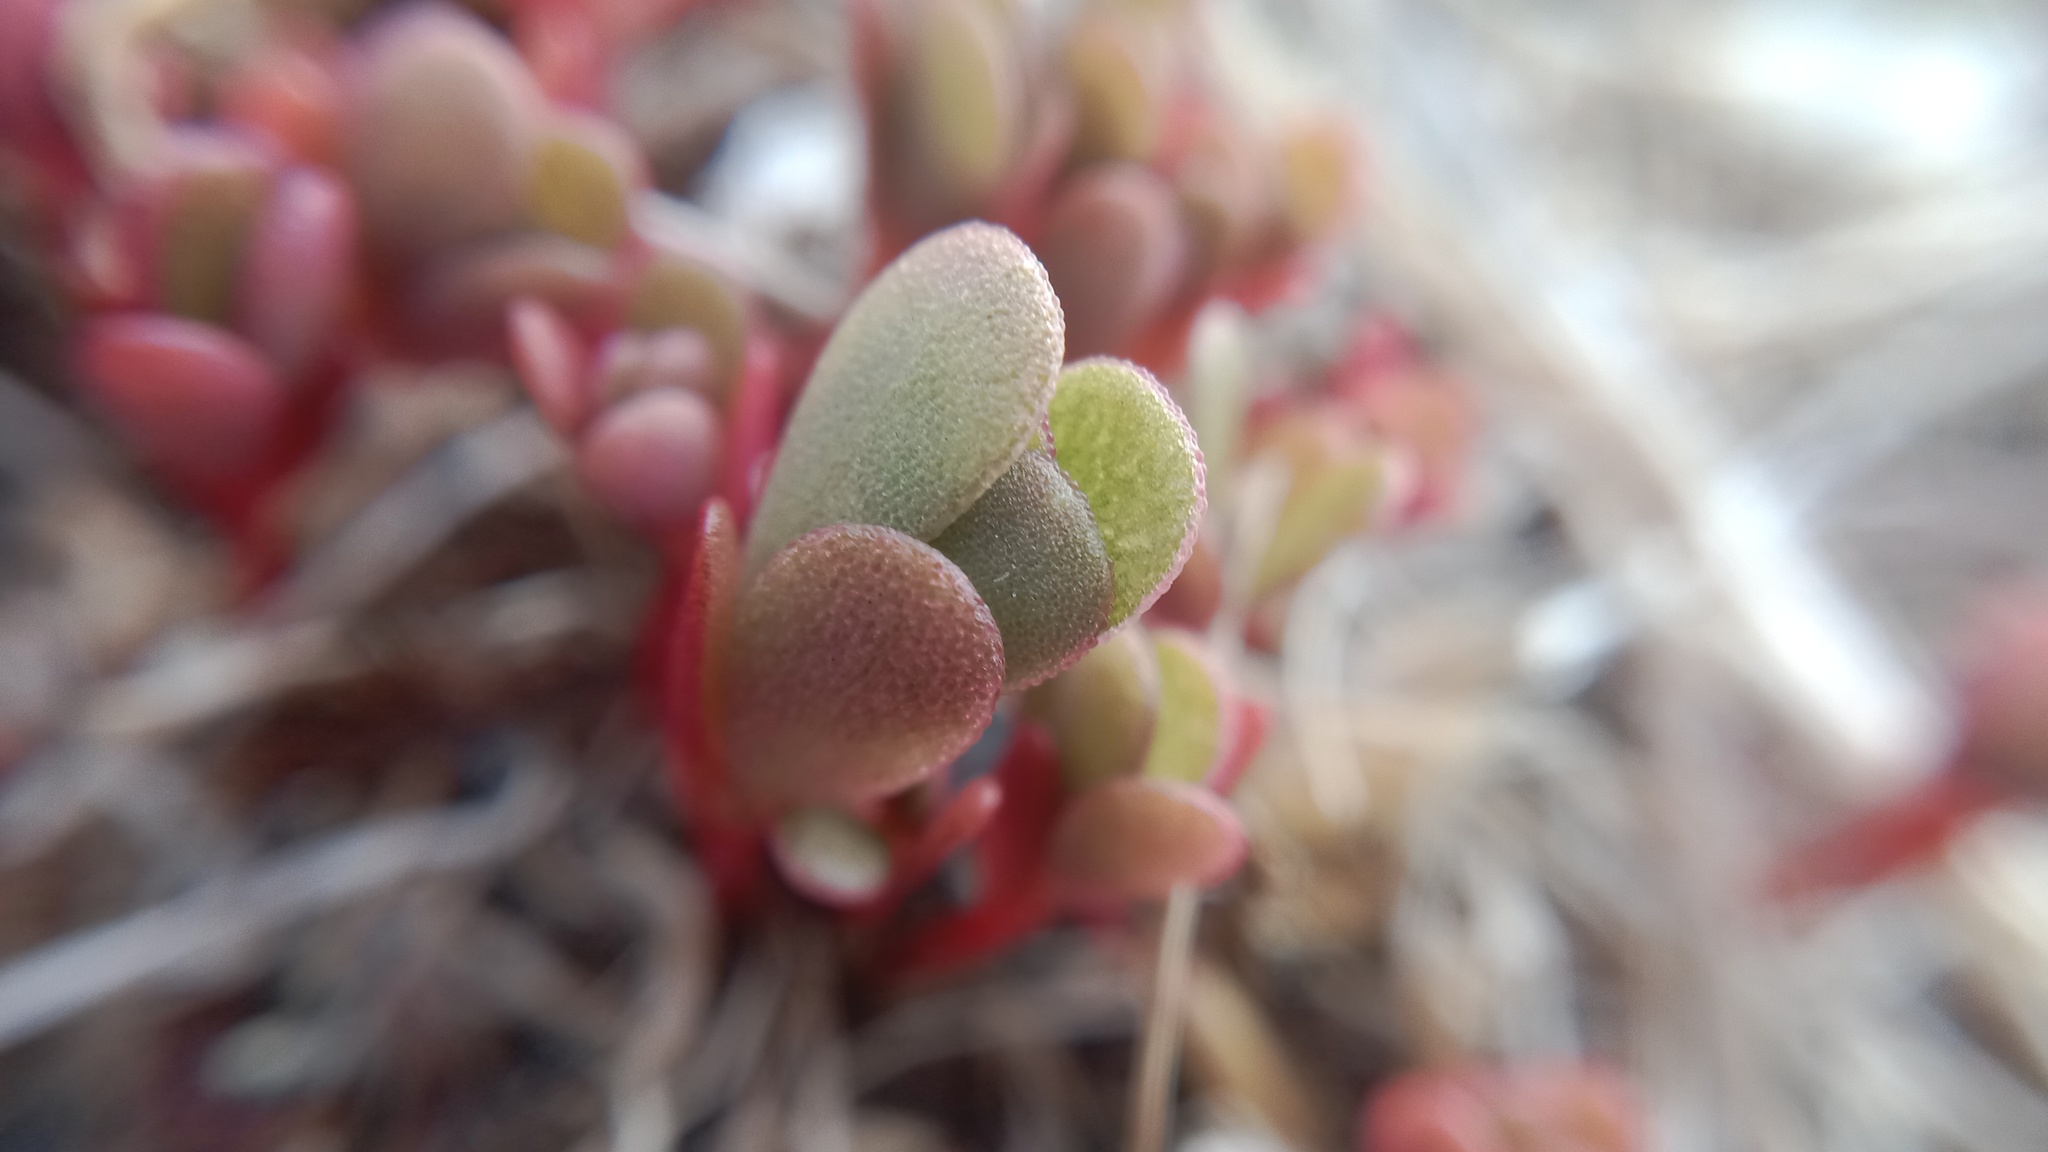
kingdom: Plantae
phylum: Tracheophyta
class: Magnoliopsida
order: Caryophyllales
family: Portulacaceae
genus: Portulaca
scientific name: Portulaca oleracea
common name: Common purslane
